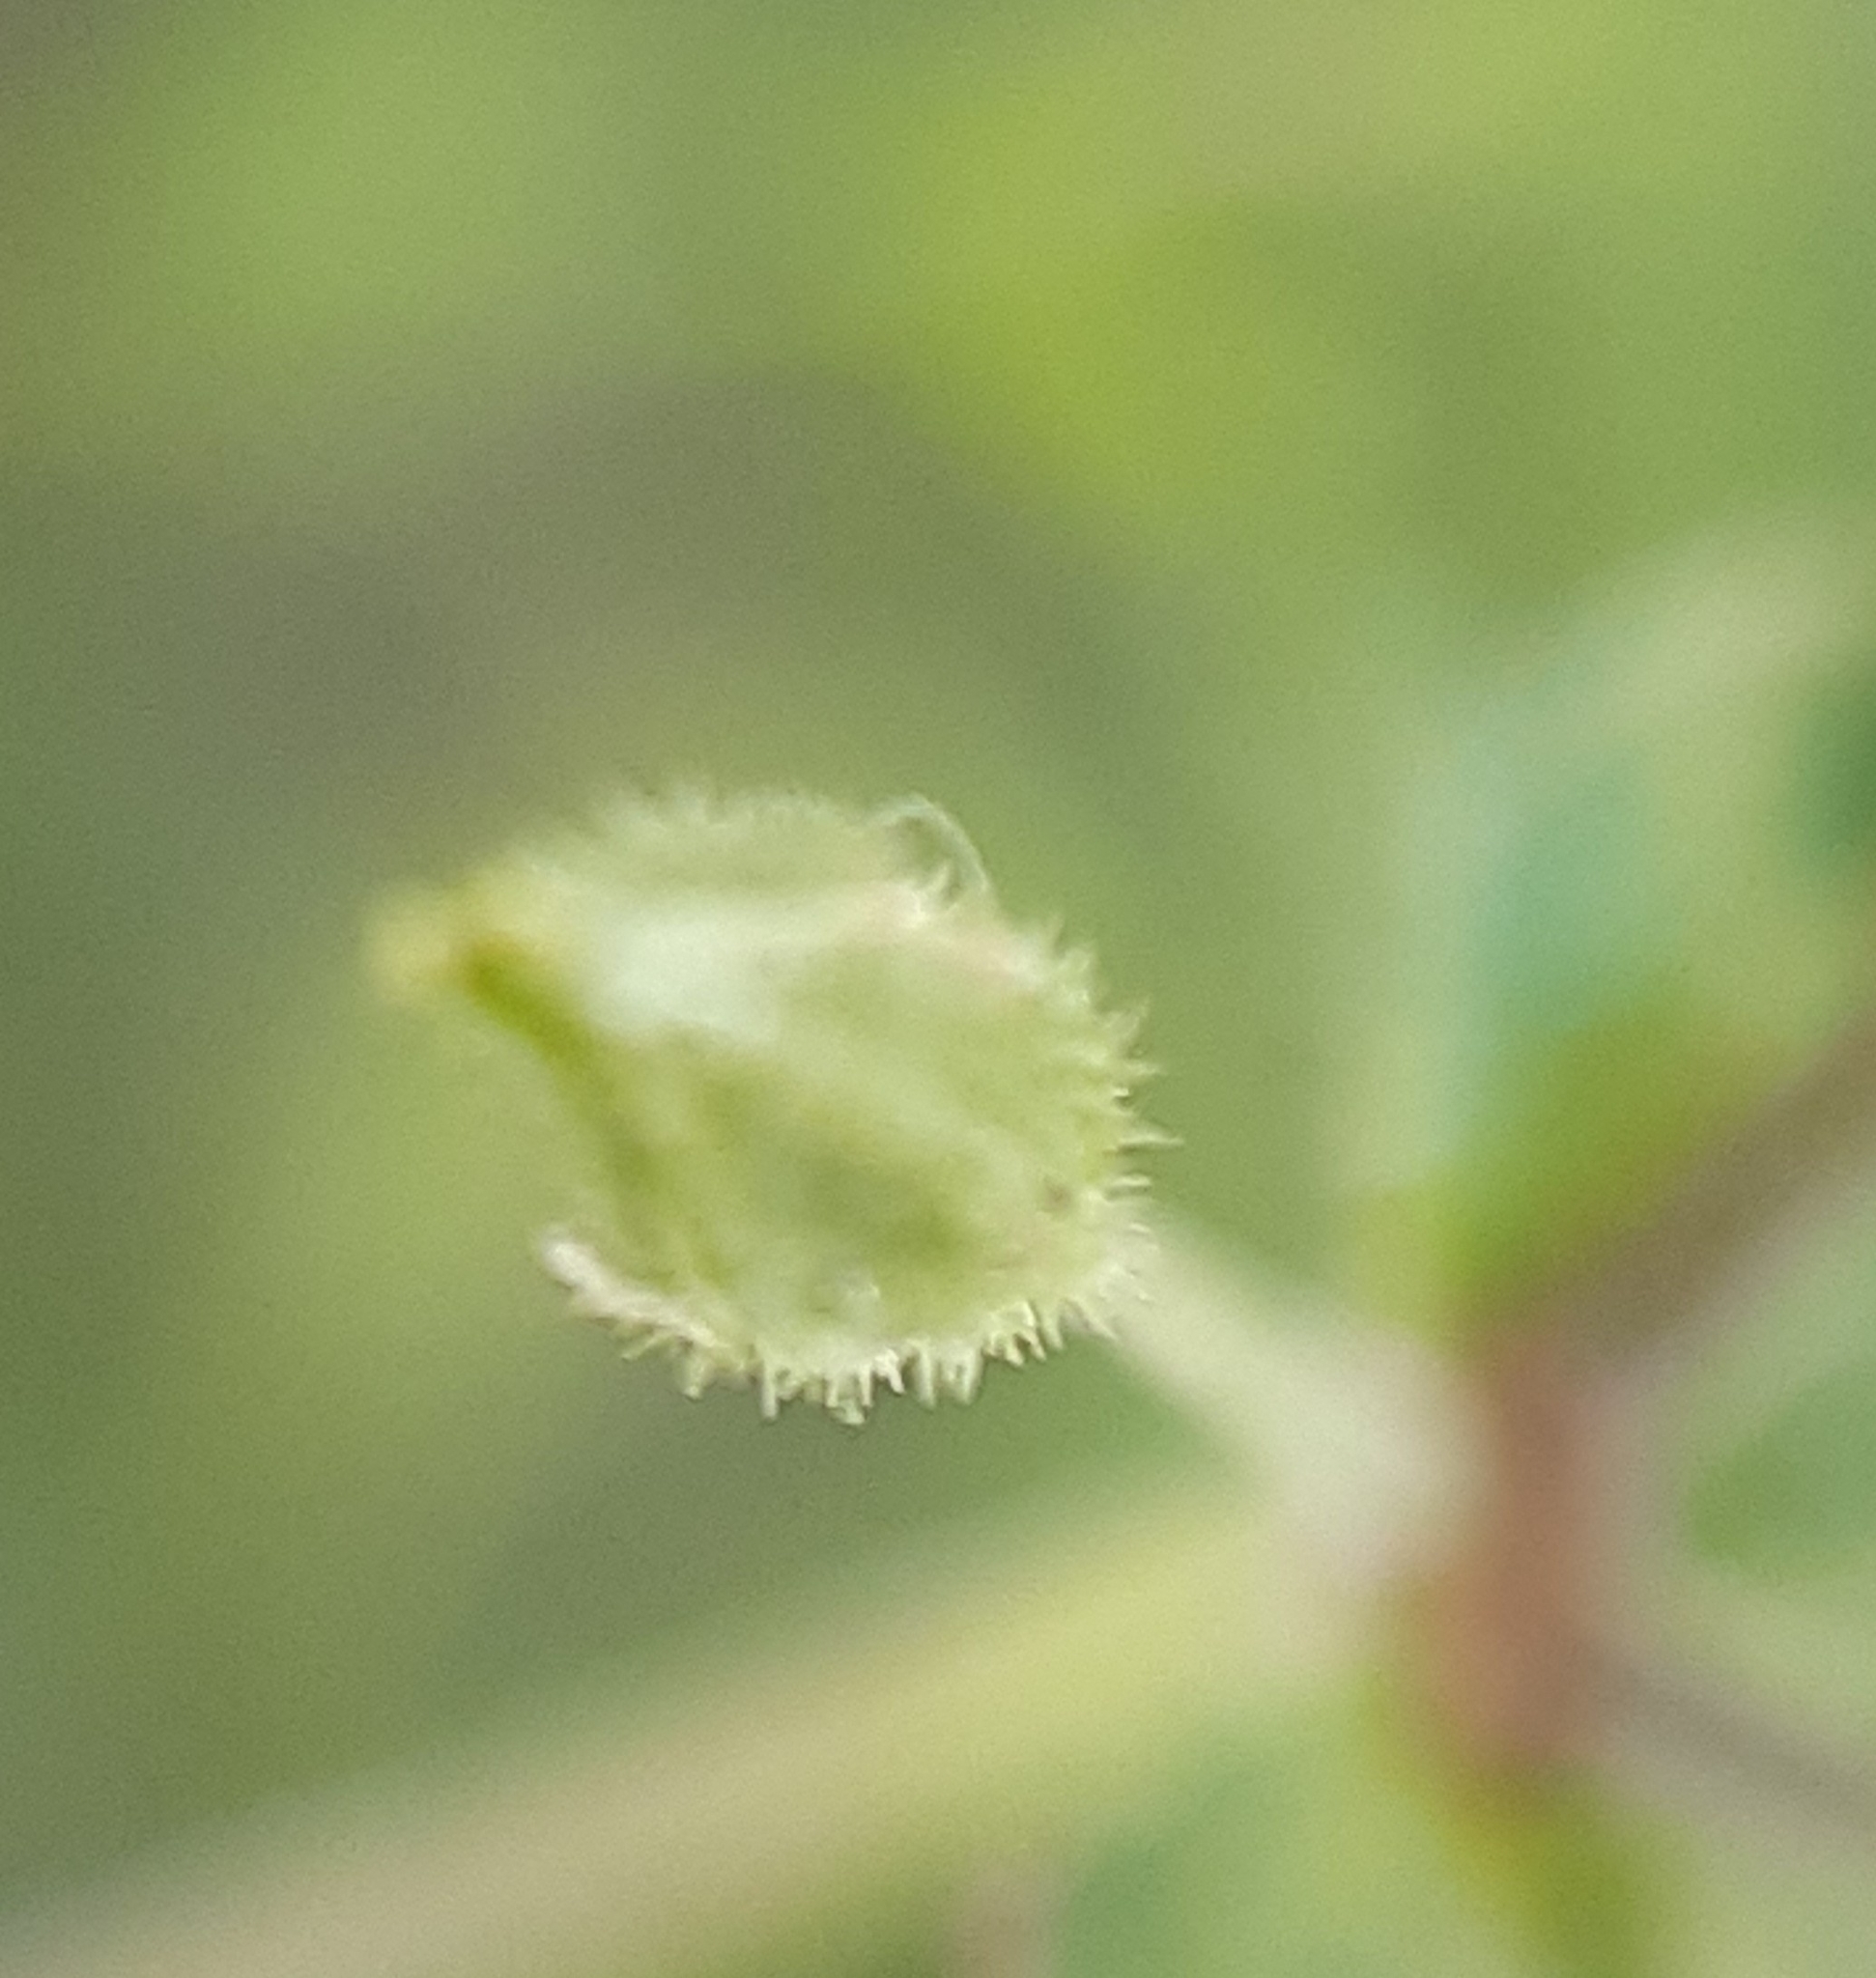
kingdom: Plantae
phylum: Tracheophyta
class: Magnoliopsida
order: Caryophyllales
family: Caryophyllaceae
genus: Arenaria
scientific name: Arenaria serpyllifolia
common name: Thyme-leaved sandwort
